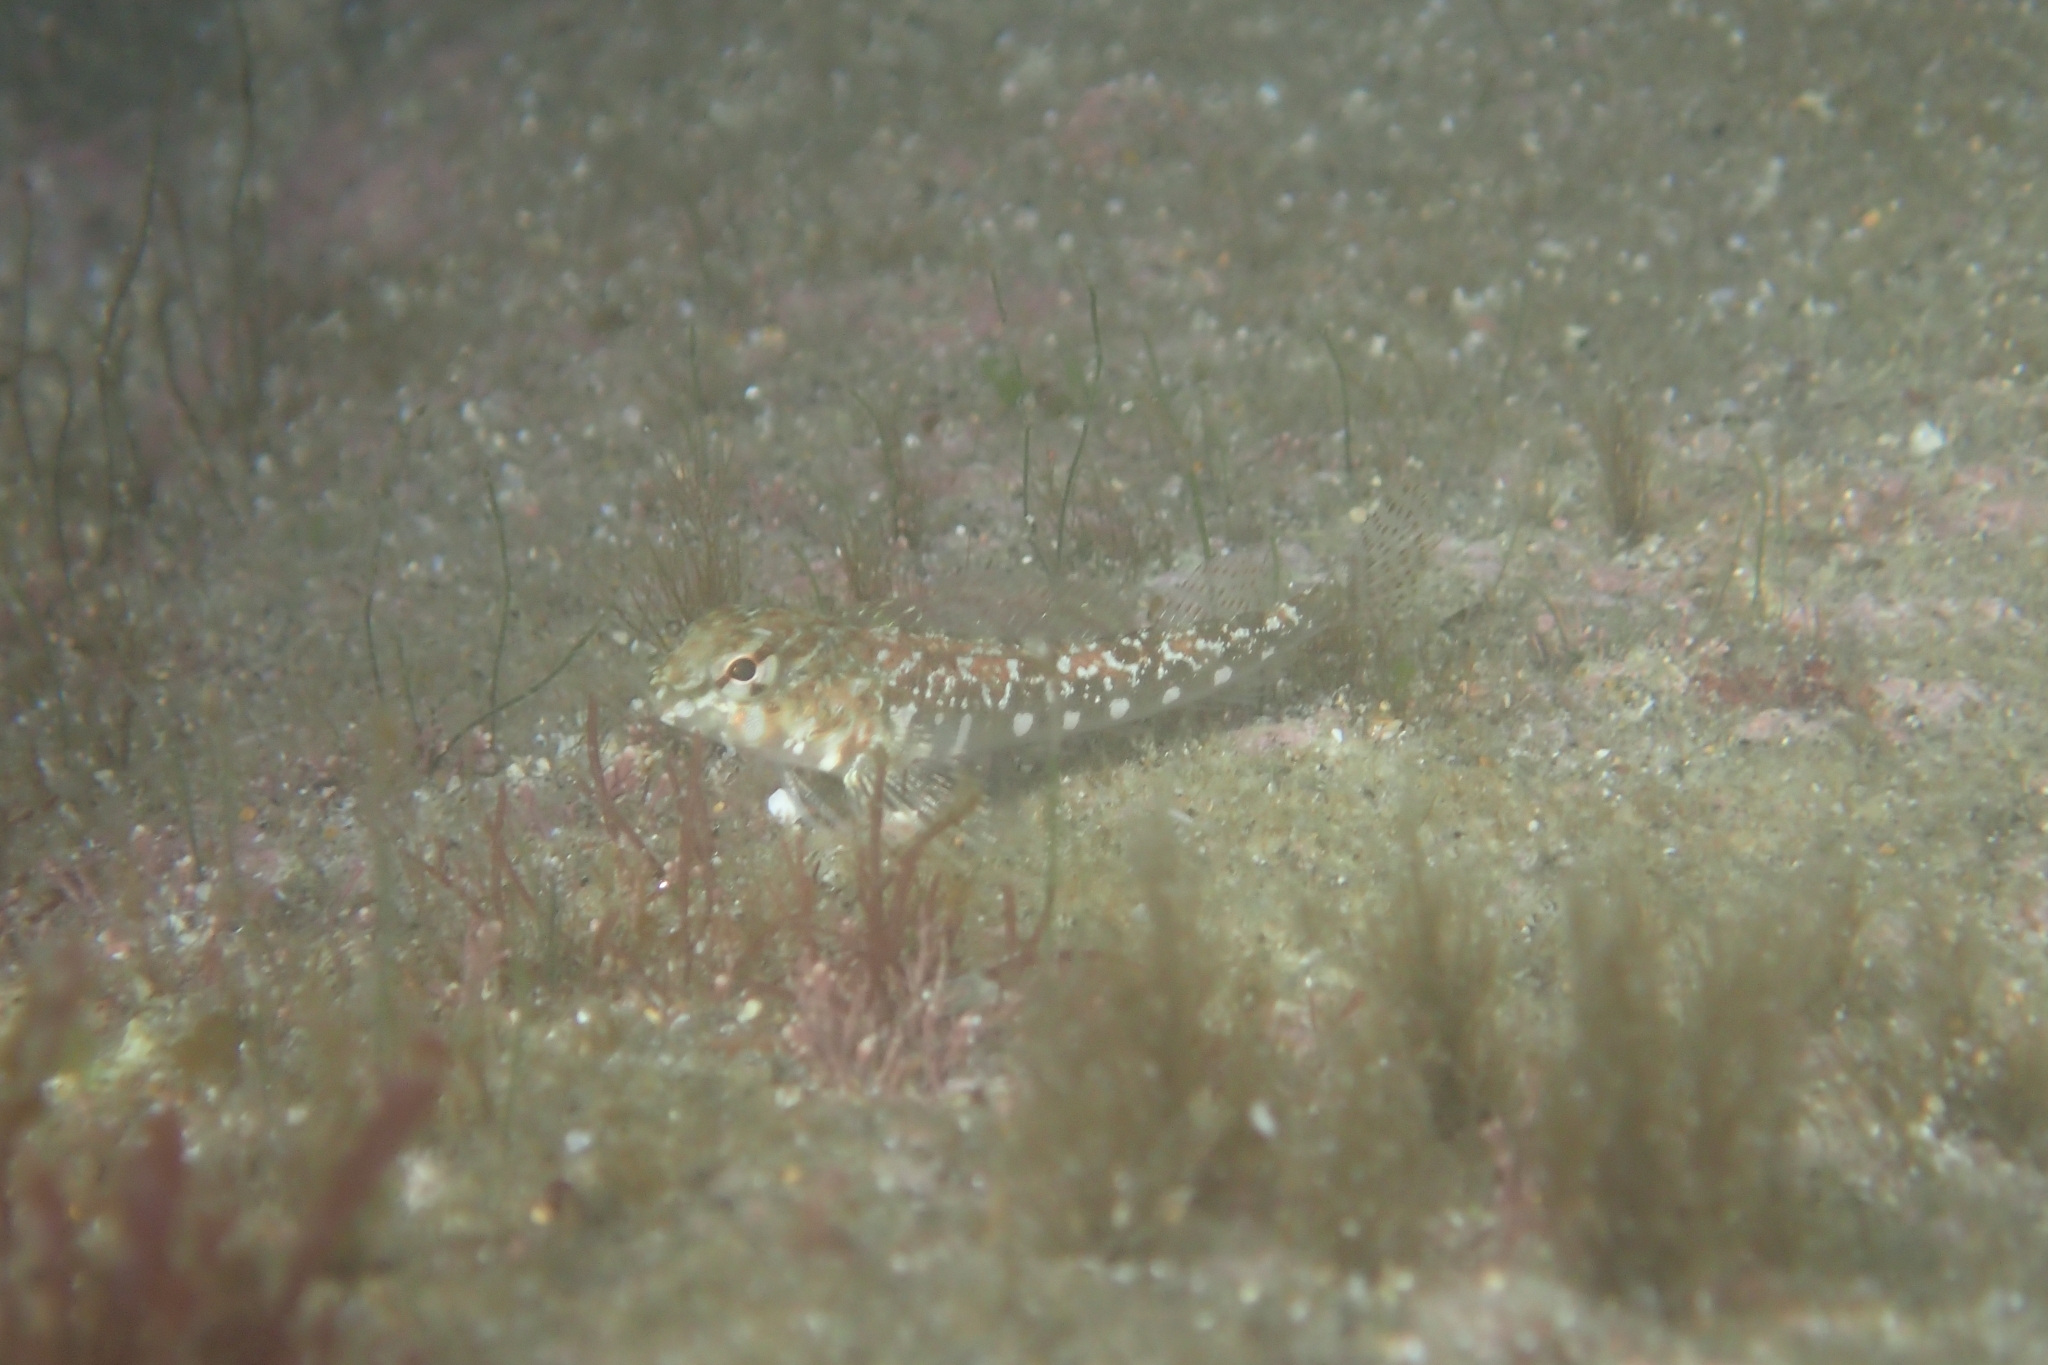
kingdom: Animalia
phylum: Chordata
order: Perciformes
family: Tripterygiidae
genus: Bellapiscis
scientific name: Bellapiscis lesleyae
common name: Mottled twister
